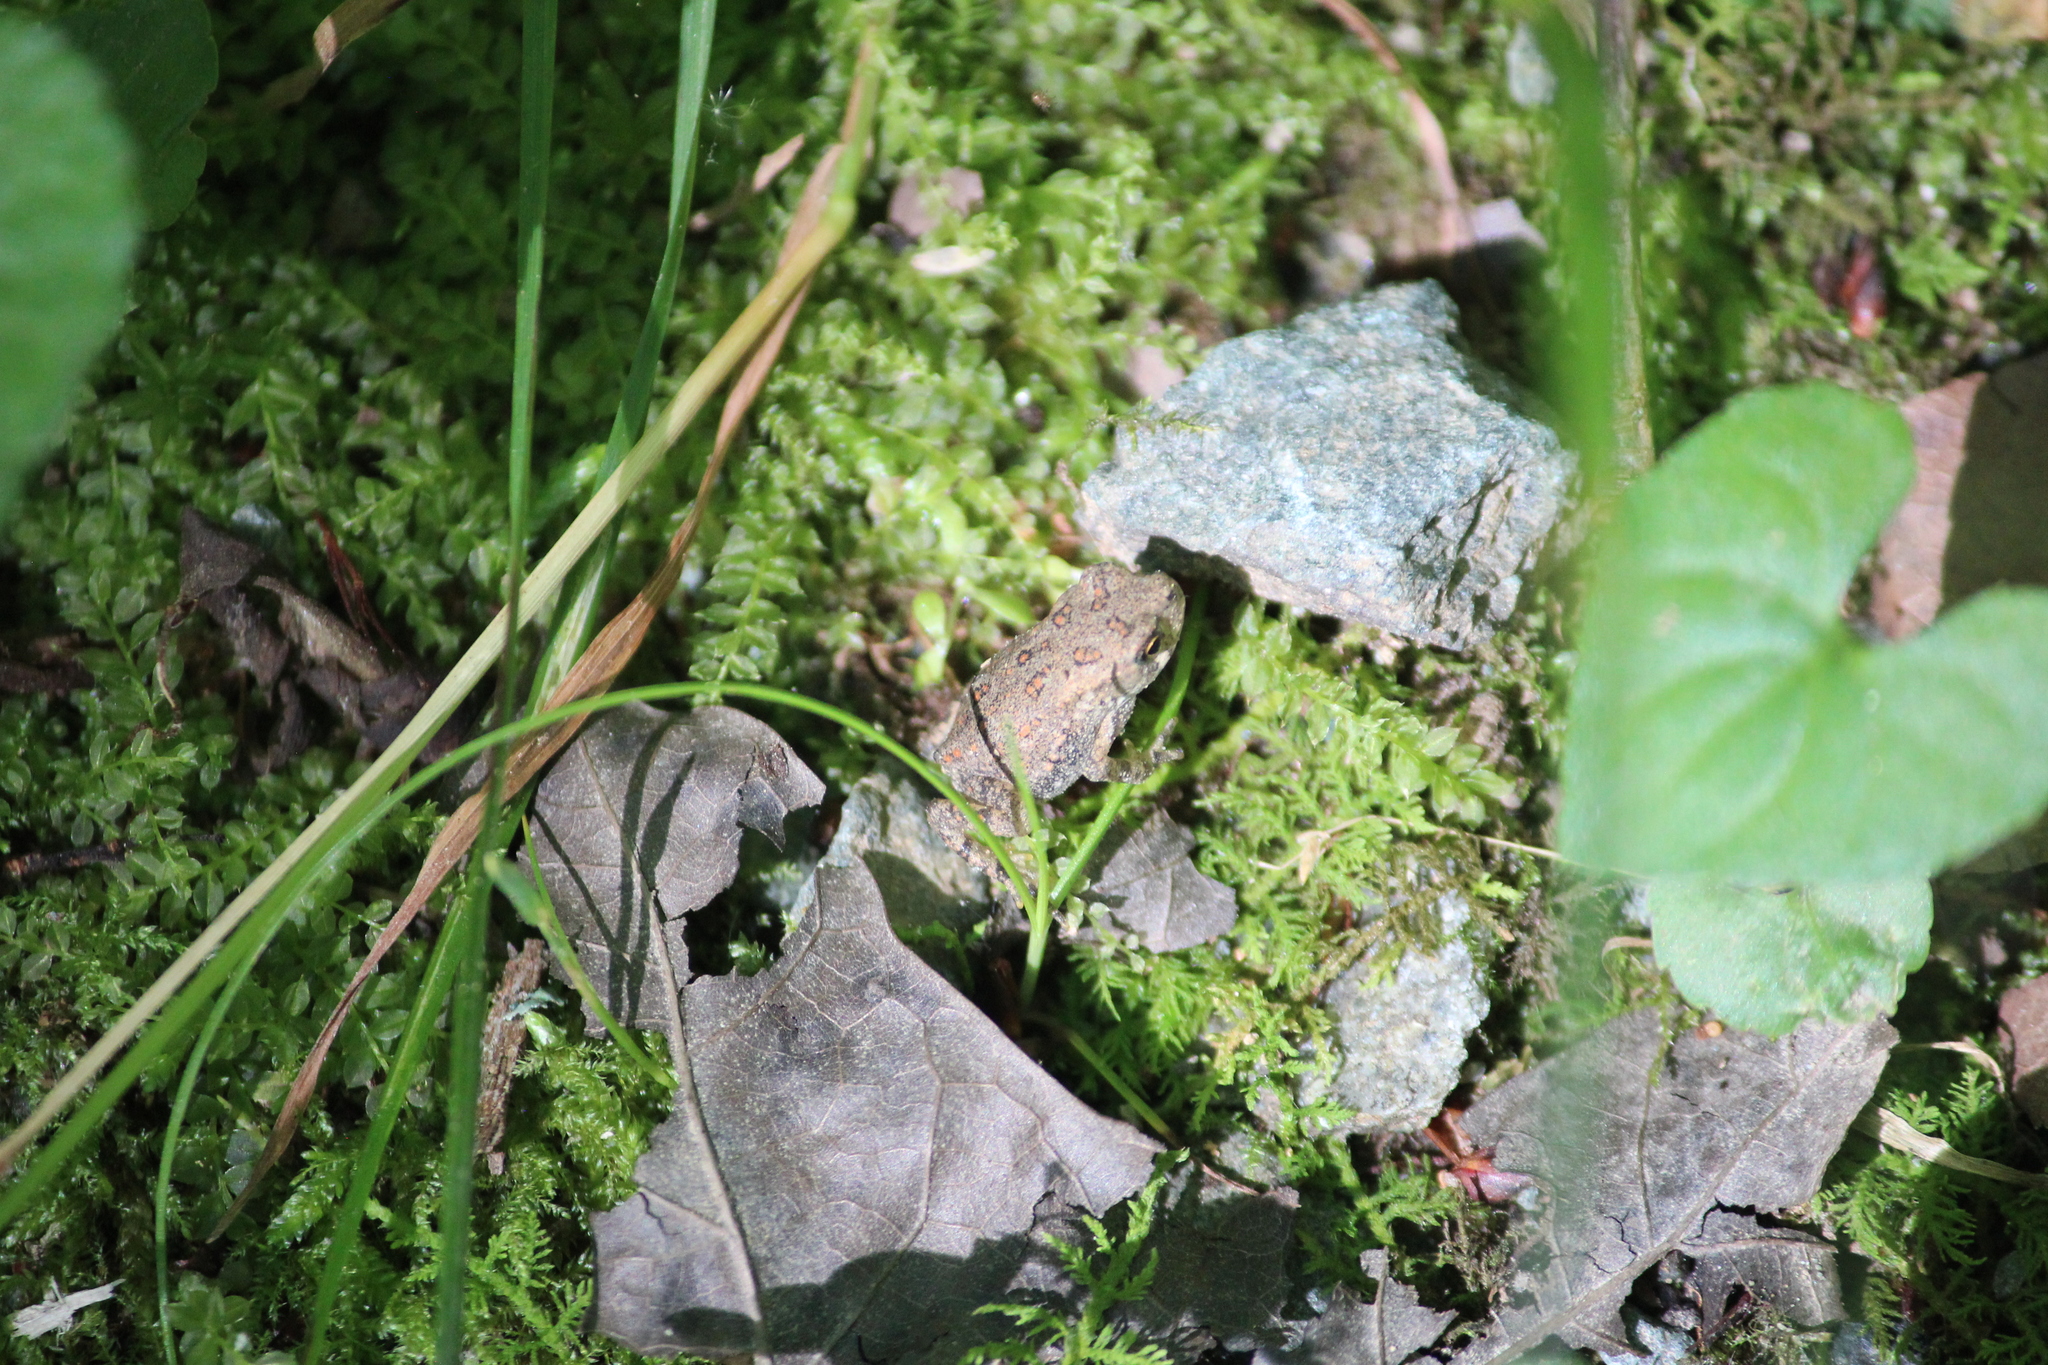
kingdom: Animalia
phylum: Chordata
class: Amphibia
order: Anura
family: Bufonidae
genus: Anaxyrus
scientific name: Anaxyrus americanus
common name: American toad
